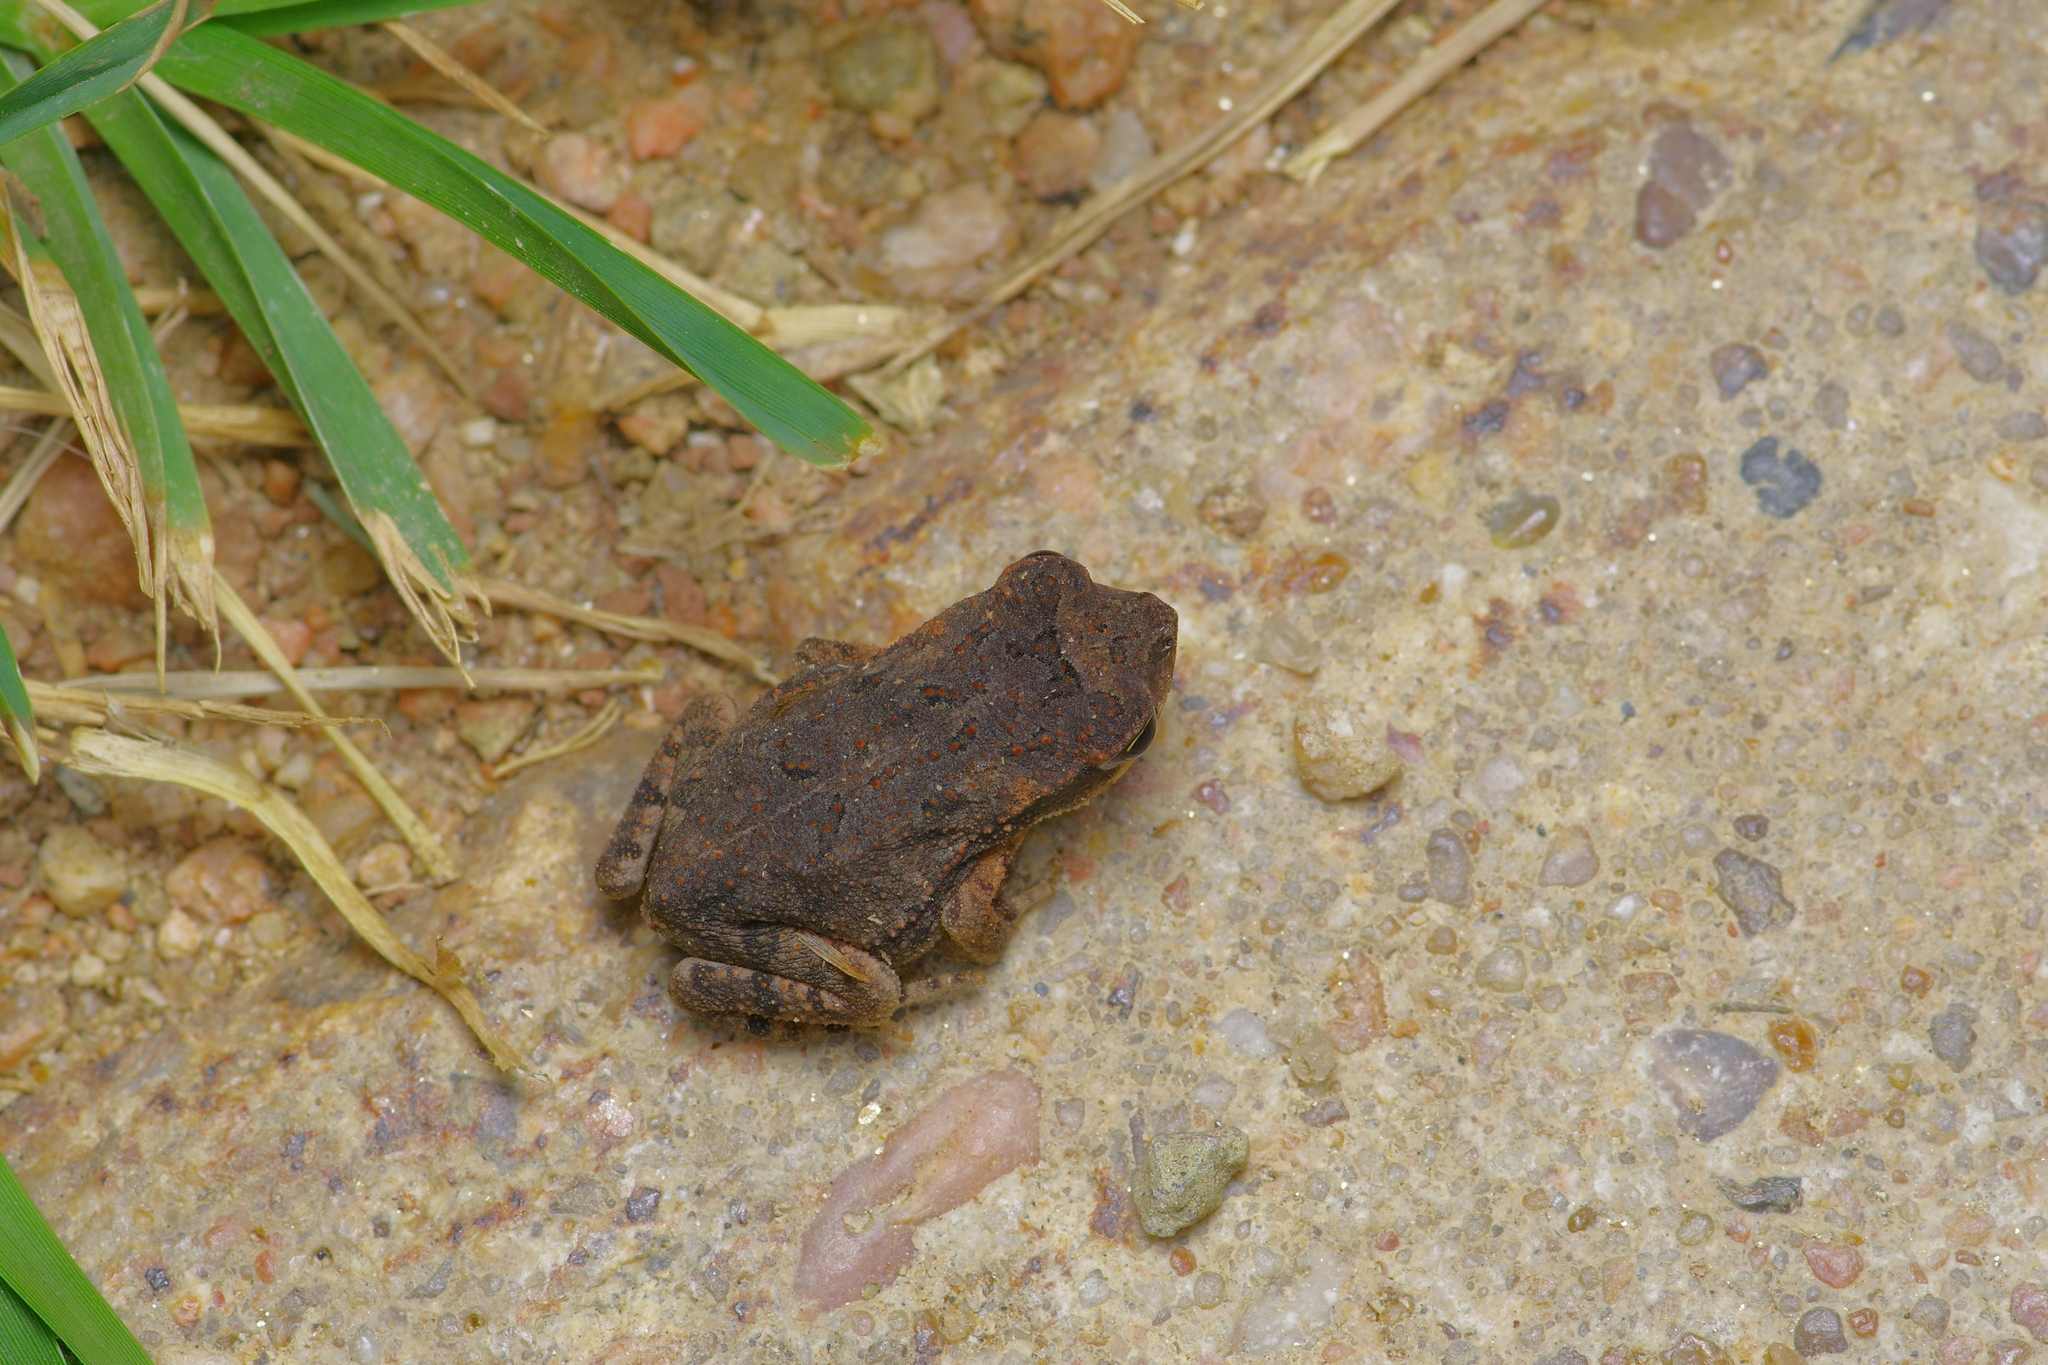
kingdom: Animalia
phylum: Chordata
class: Amphibia
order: Anura
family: Bufonidae
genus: Incilius
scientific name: Incilius nebulifer
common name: Gulf coast toad
